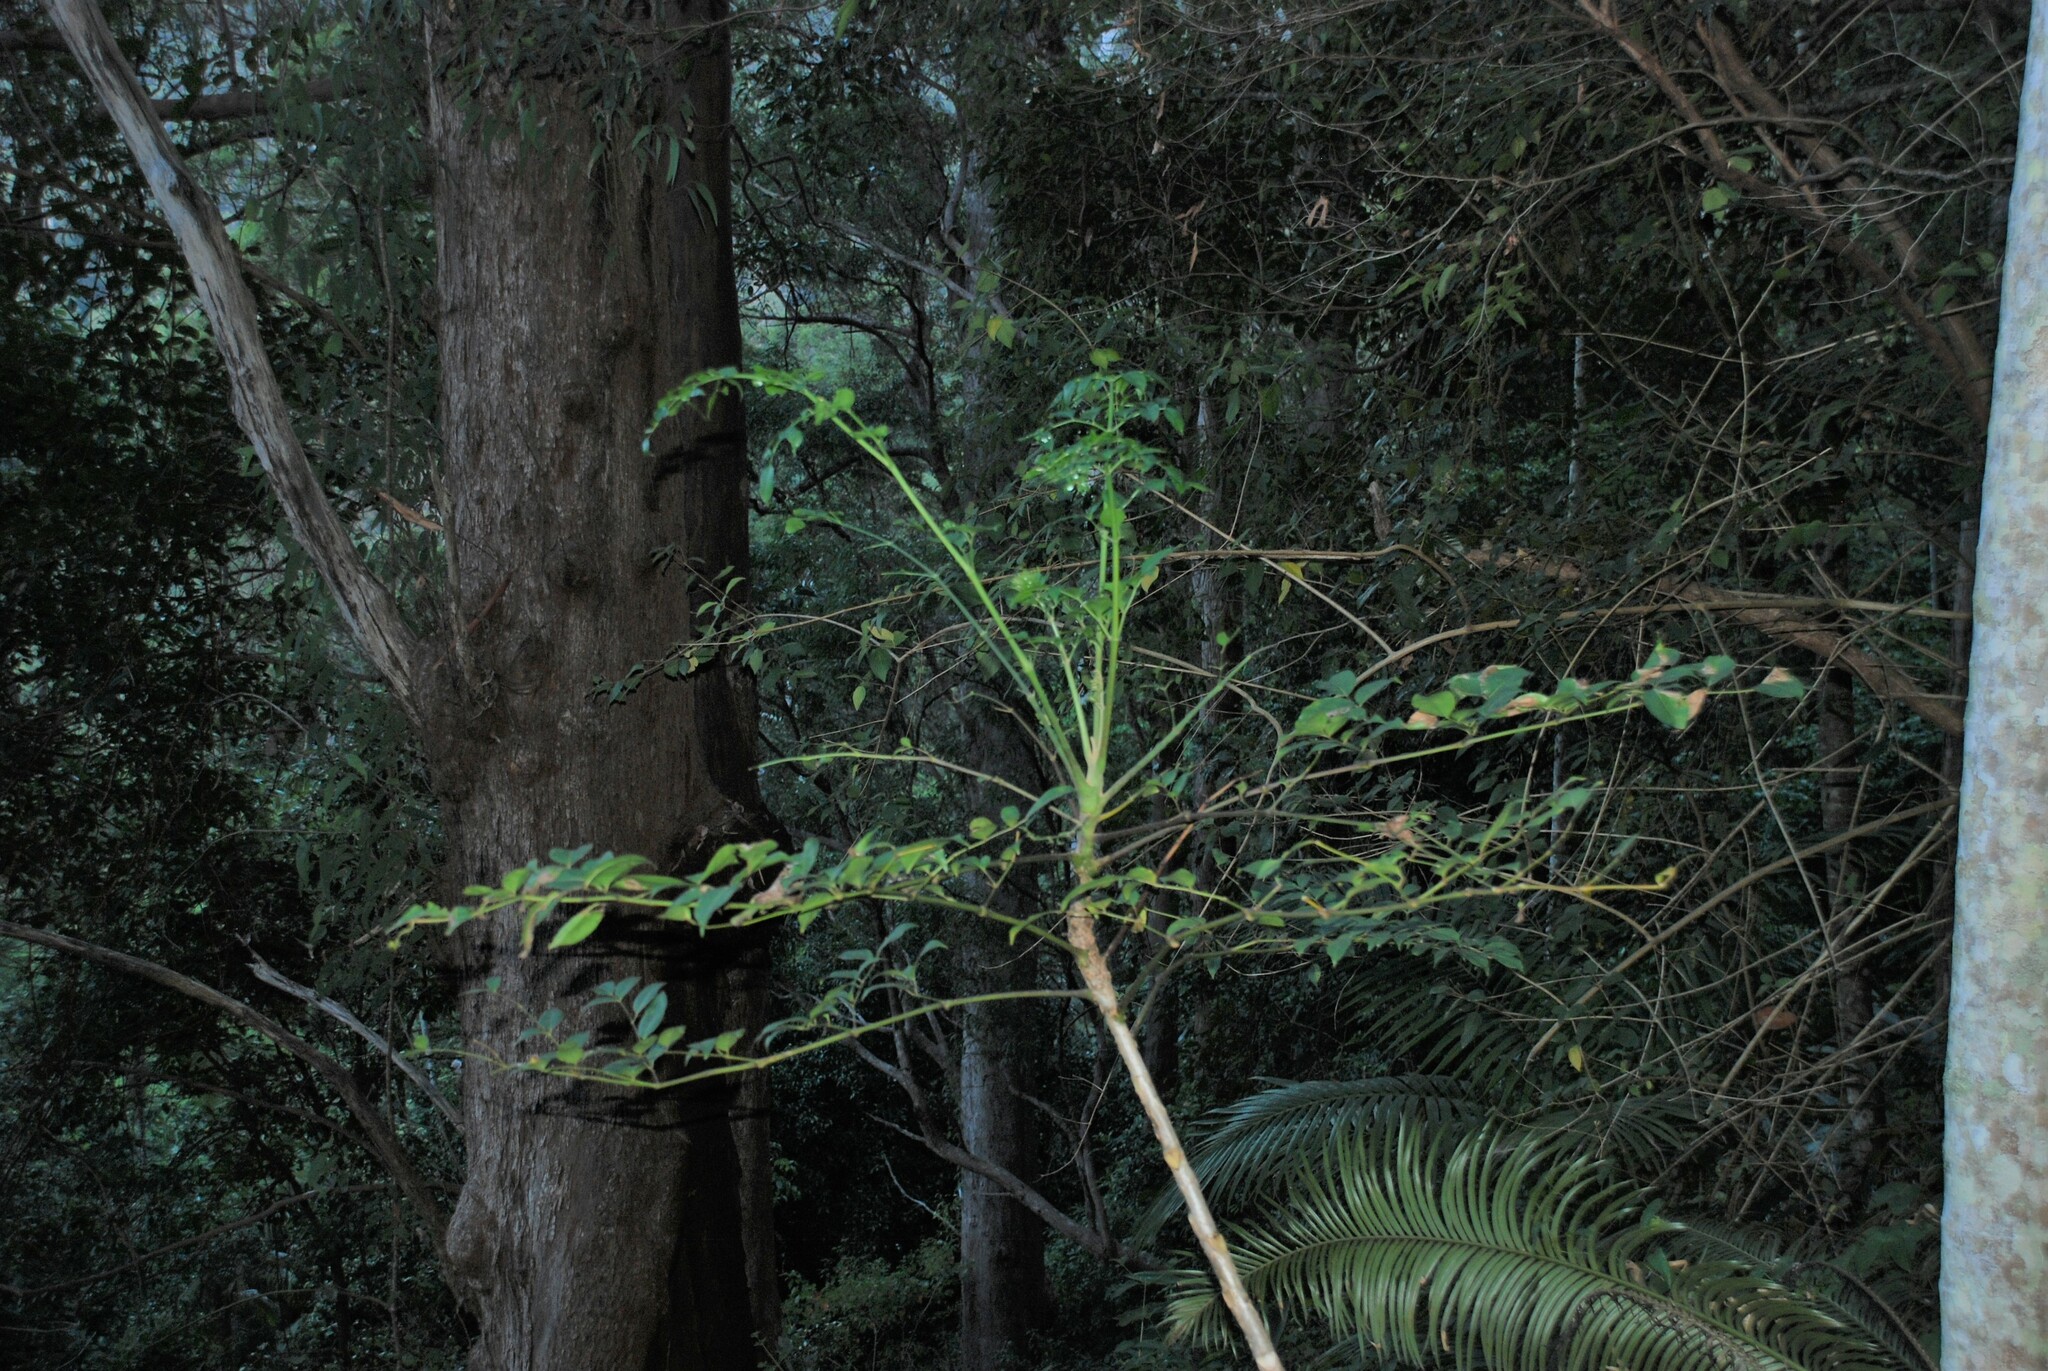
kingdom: Plantae
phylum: Tracheophyta
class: Magnoliopsida
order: Apiales
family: Araliaceae
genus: Polyscias
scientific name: Polyscias elegans
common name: Mowbulan whitewood
